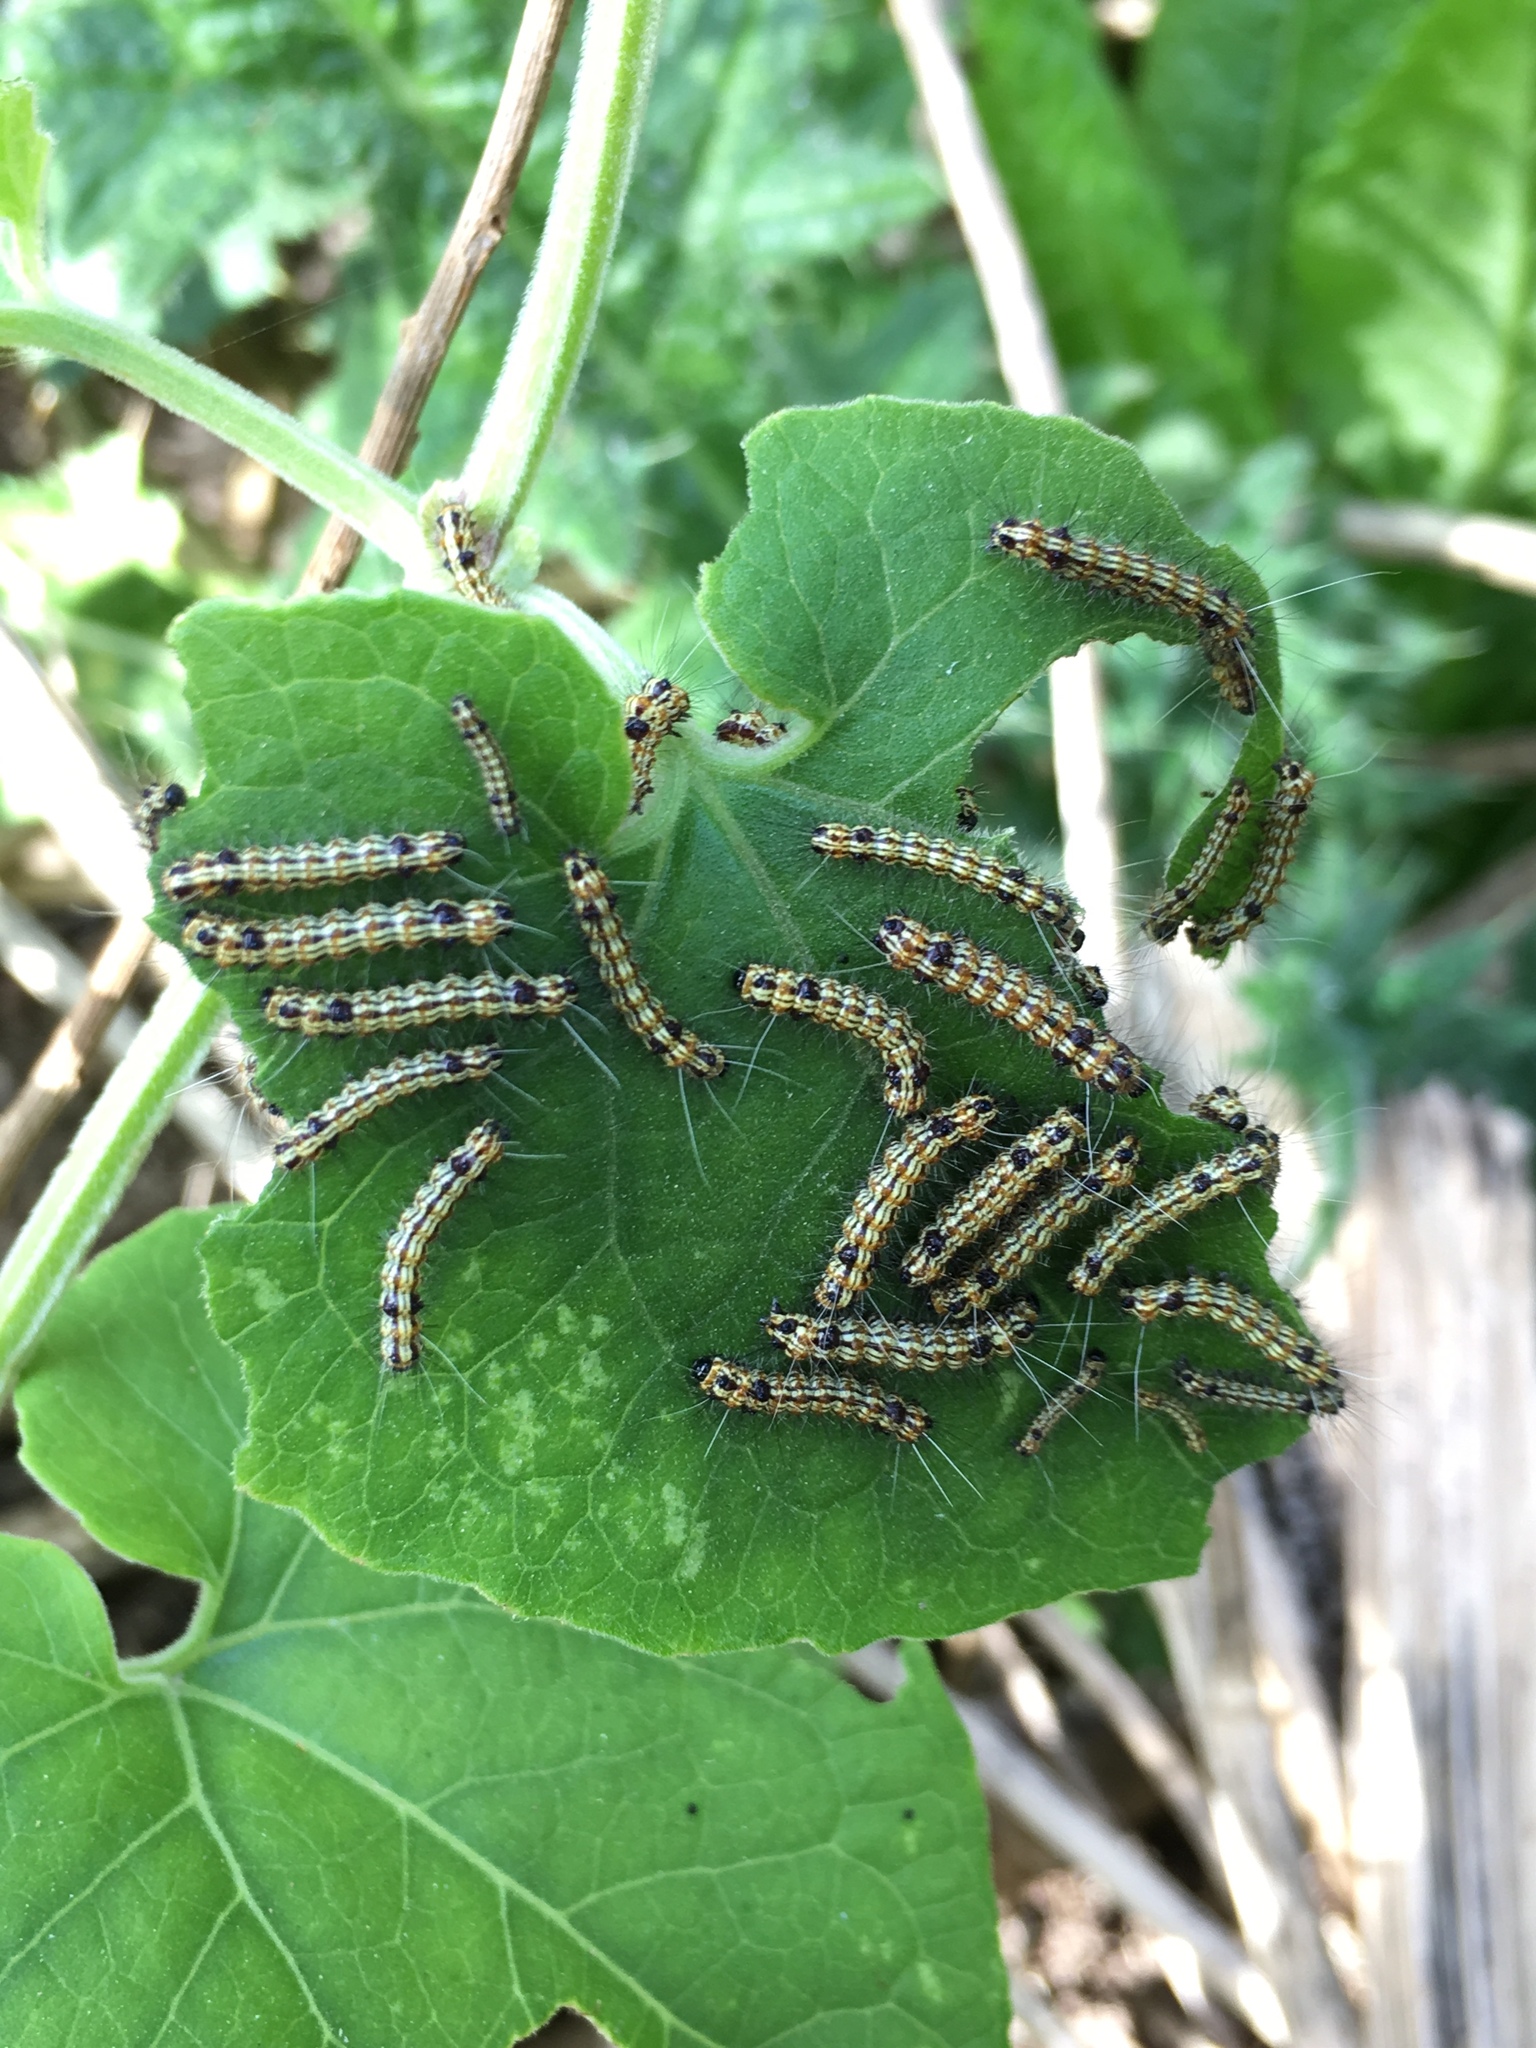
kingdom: Animalia
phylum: Arthropoda
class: Insecta
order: Lepidoptera
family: Erebidae
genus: Dysschema
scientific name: Dysschema sacrifica
